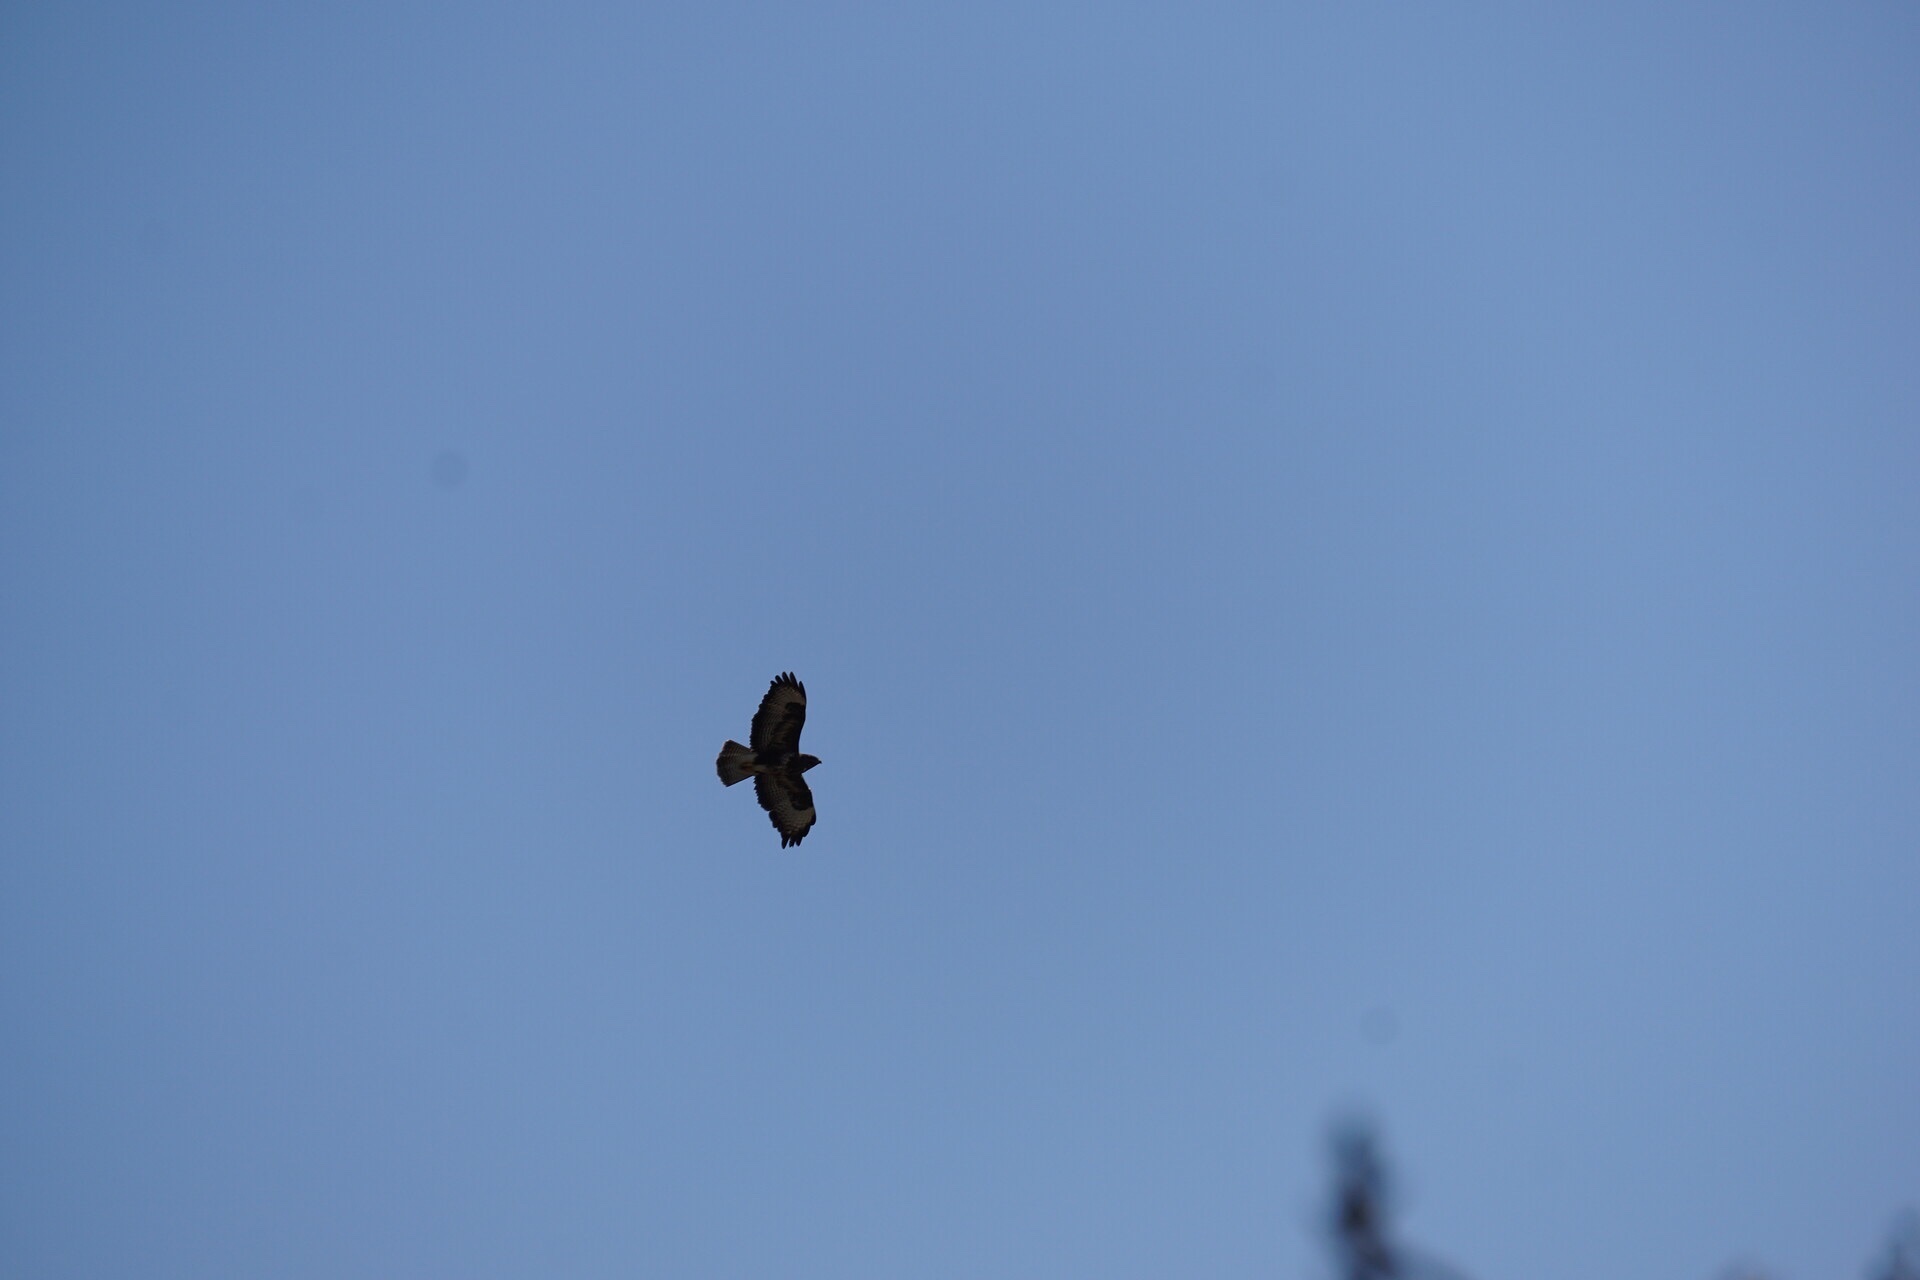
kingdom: Animalia
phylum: Chordata
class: Aves
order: Accipitriformes
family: Accipitridae
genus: Buteo
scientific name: Buteo buteo
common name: Common buzzard
